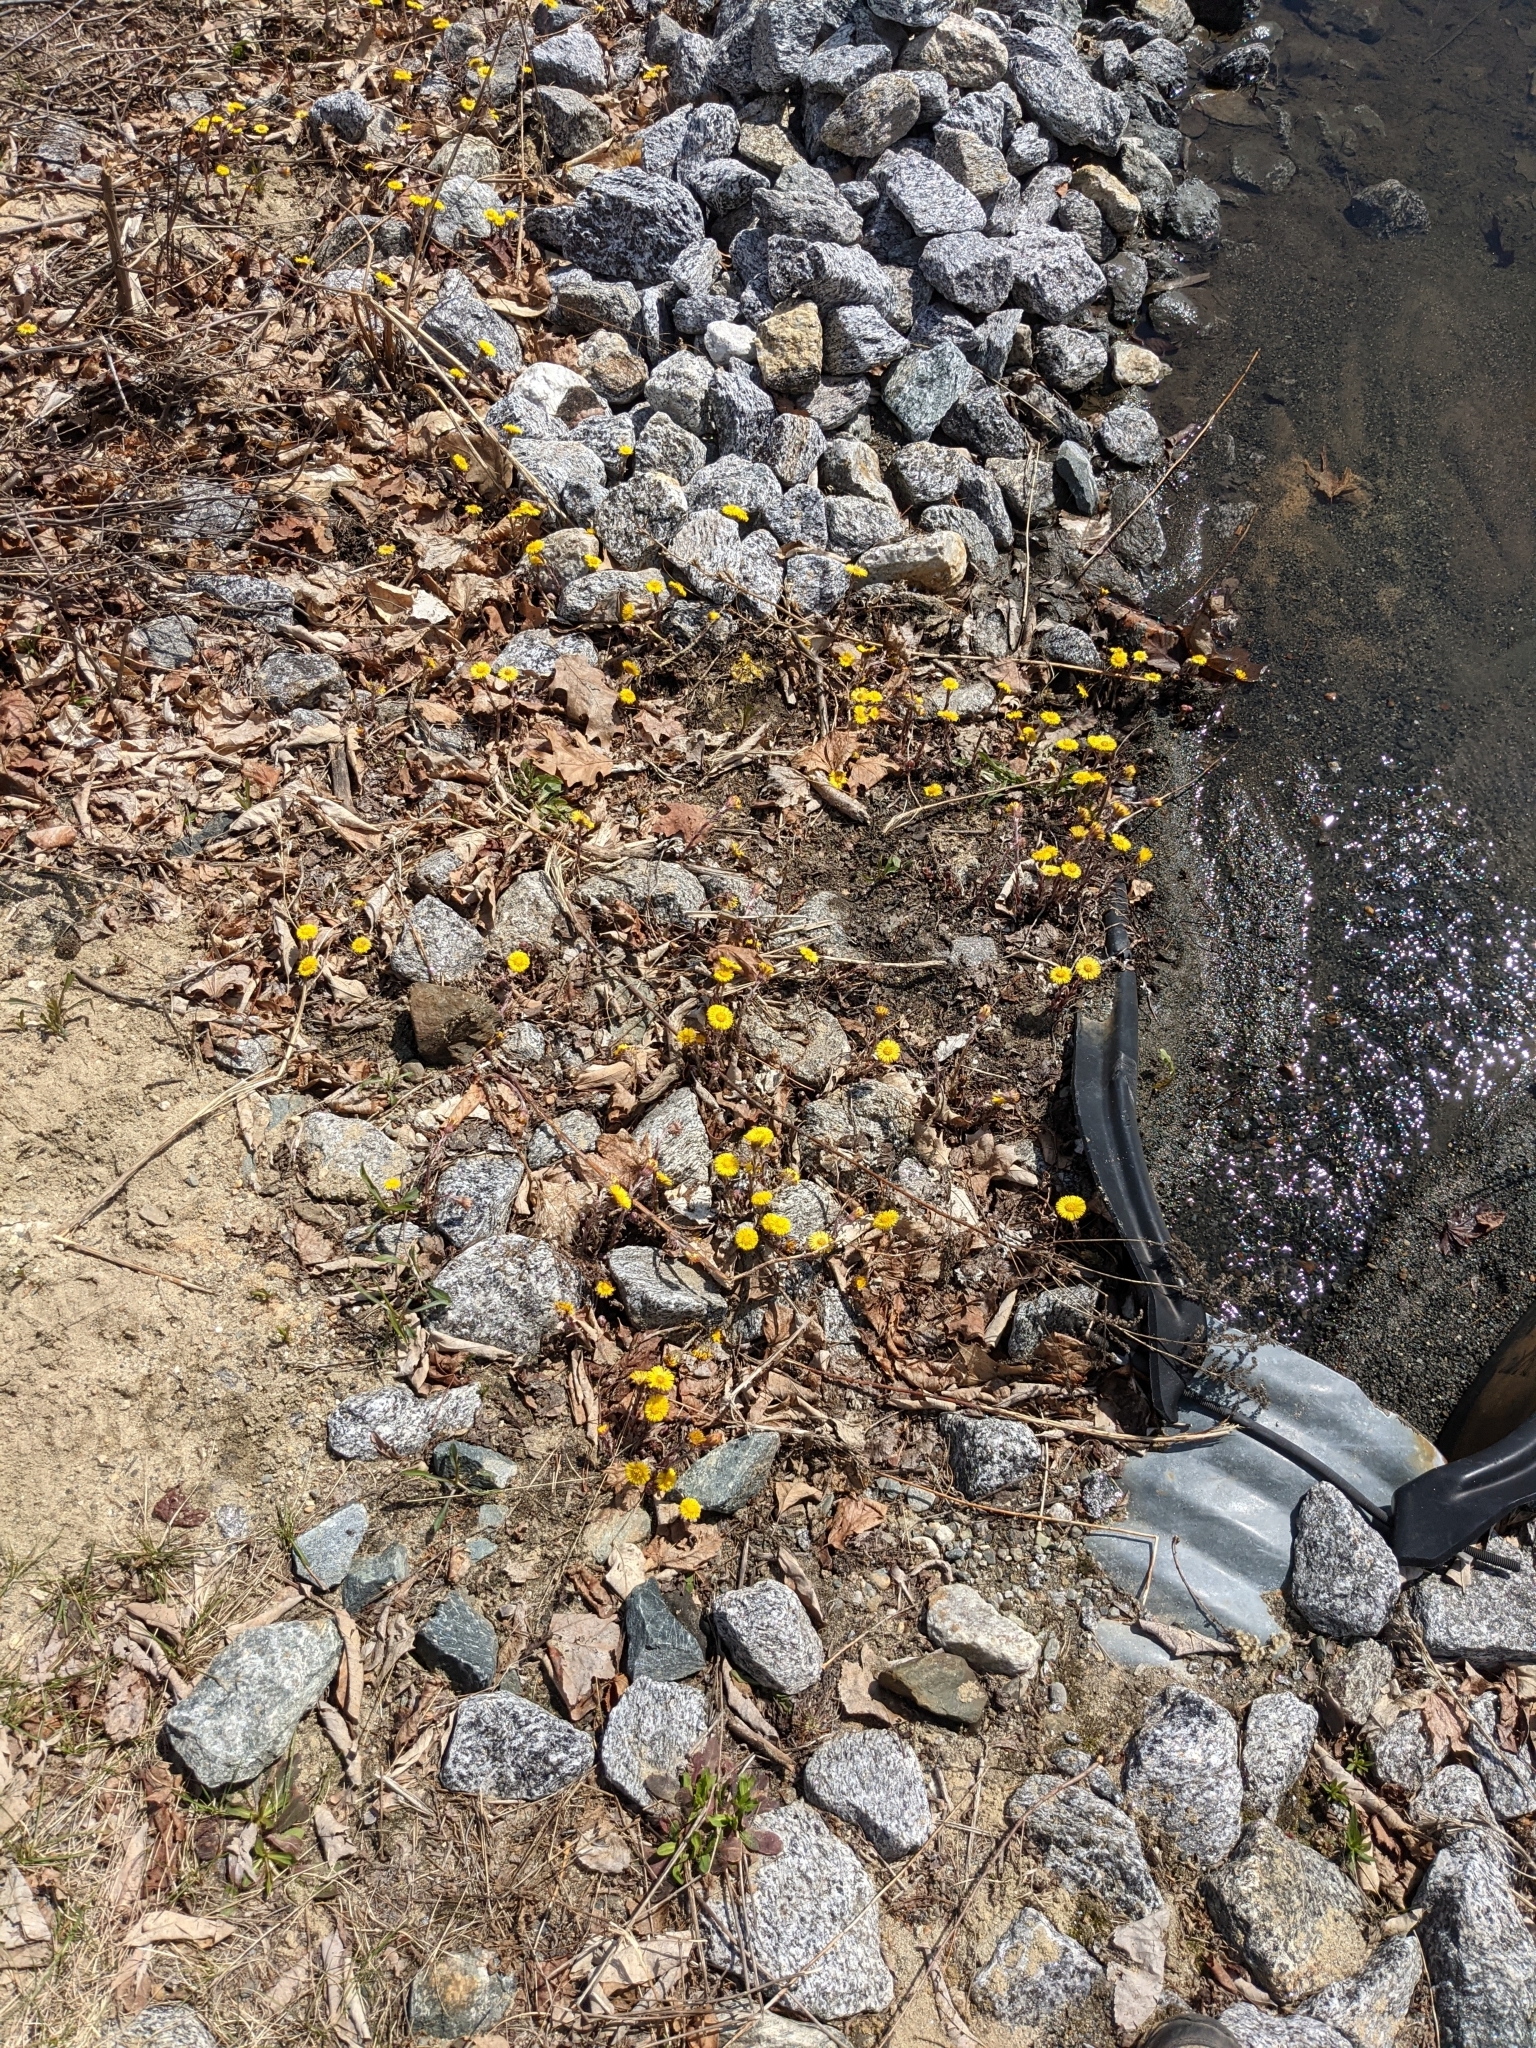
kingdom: Plantae
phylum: Tracheophyta
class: Magnoliopsida
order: Asterales
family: Asteraceae
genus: Tussilago
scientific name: Tussilago farfara
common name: Coltsfoot
